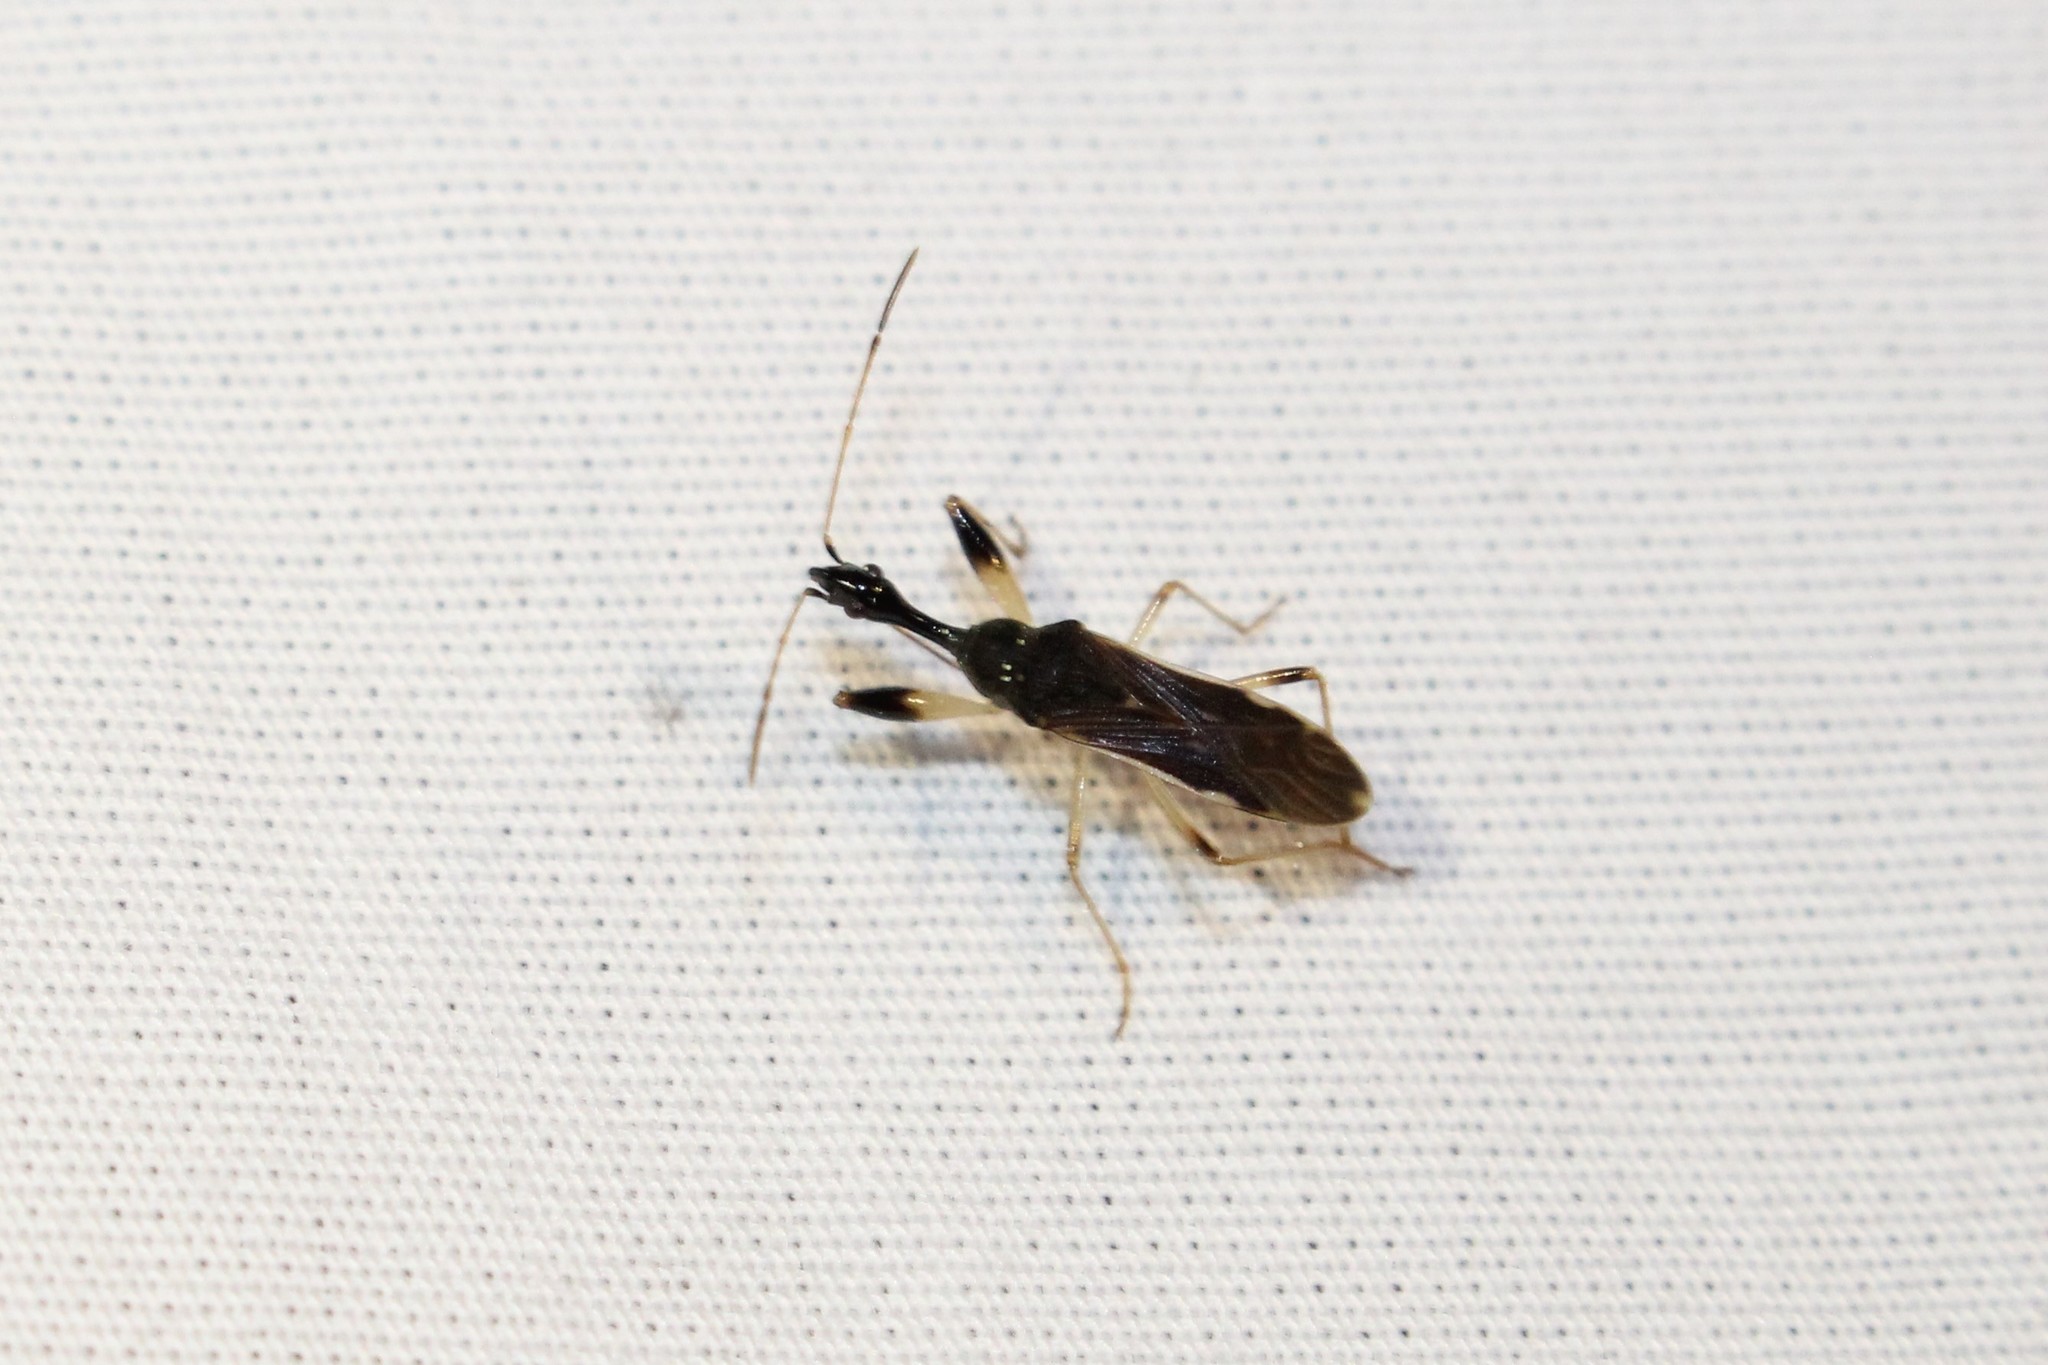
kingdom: Animalia
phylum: Arthropoda
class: Insecta
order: Hemiptera
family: Rhyparochromidae
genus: Myodocha
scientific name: Myodocha serripes
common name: Long-necked seed bug
